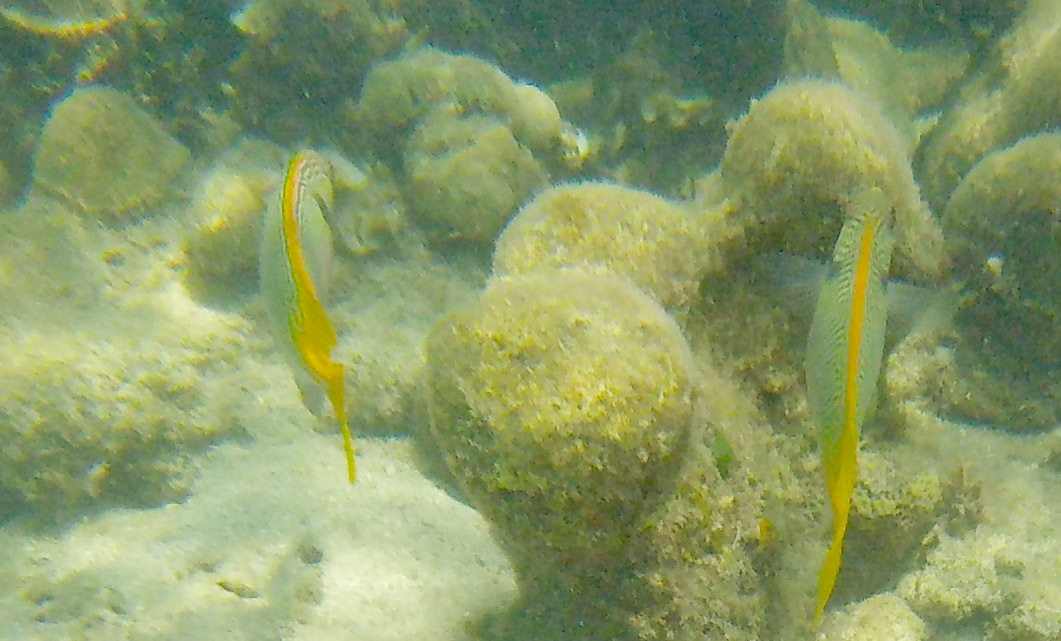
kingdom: Animalia
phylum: Chordata
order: Perciformes
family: Siganidae
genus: Siganus
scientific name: Siganus doliatus
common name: Barred spinefoot
